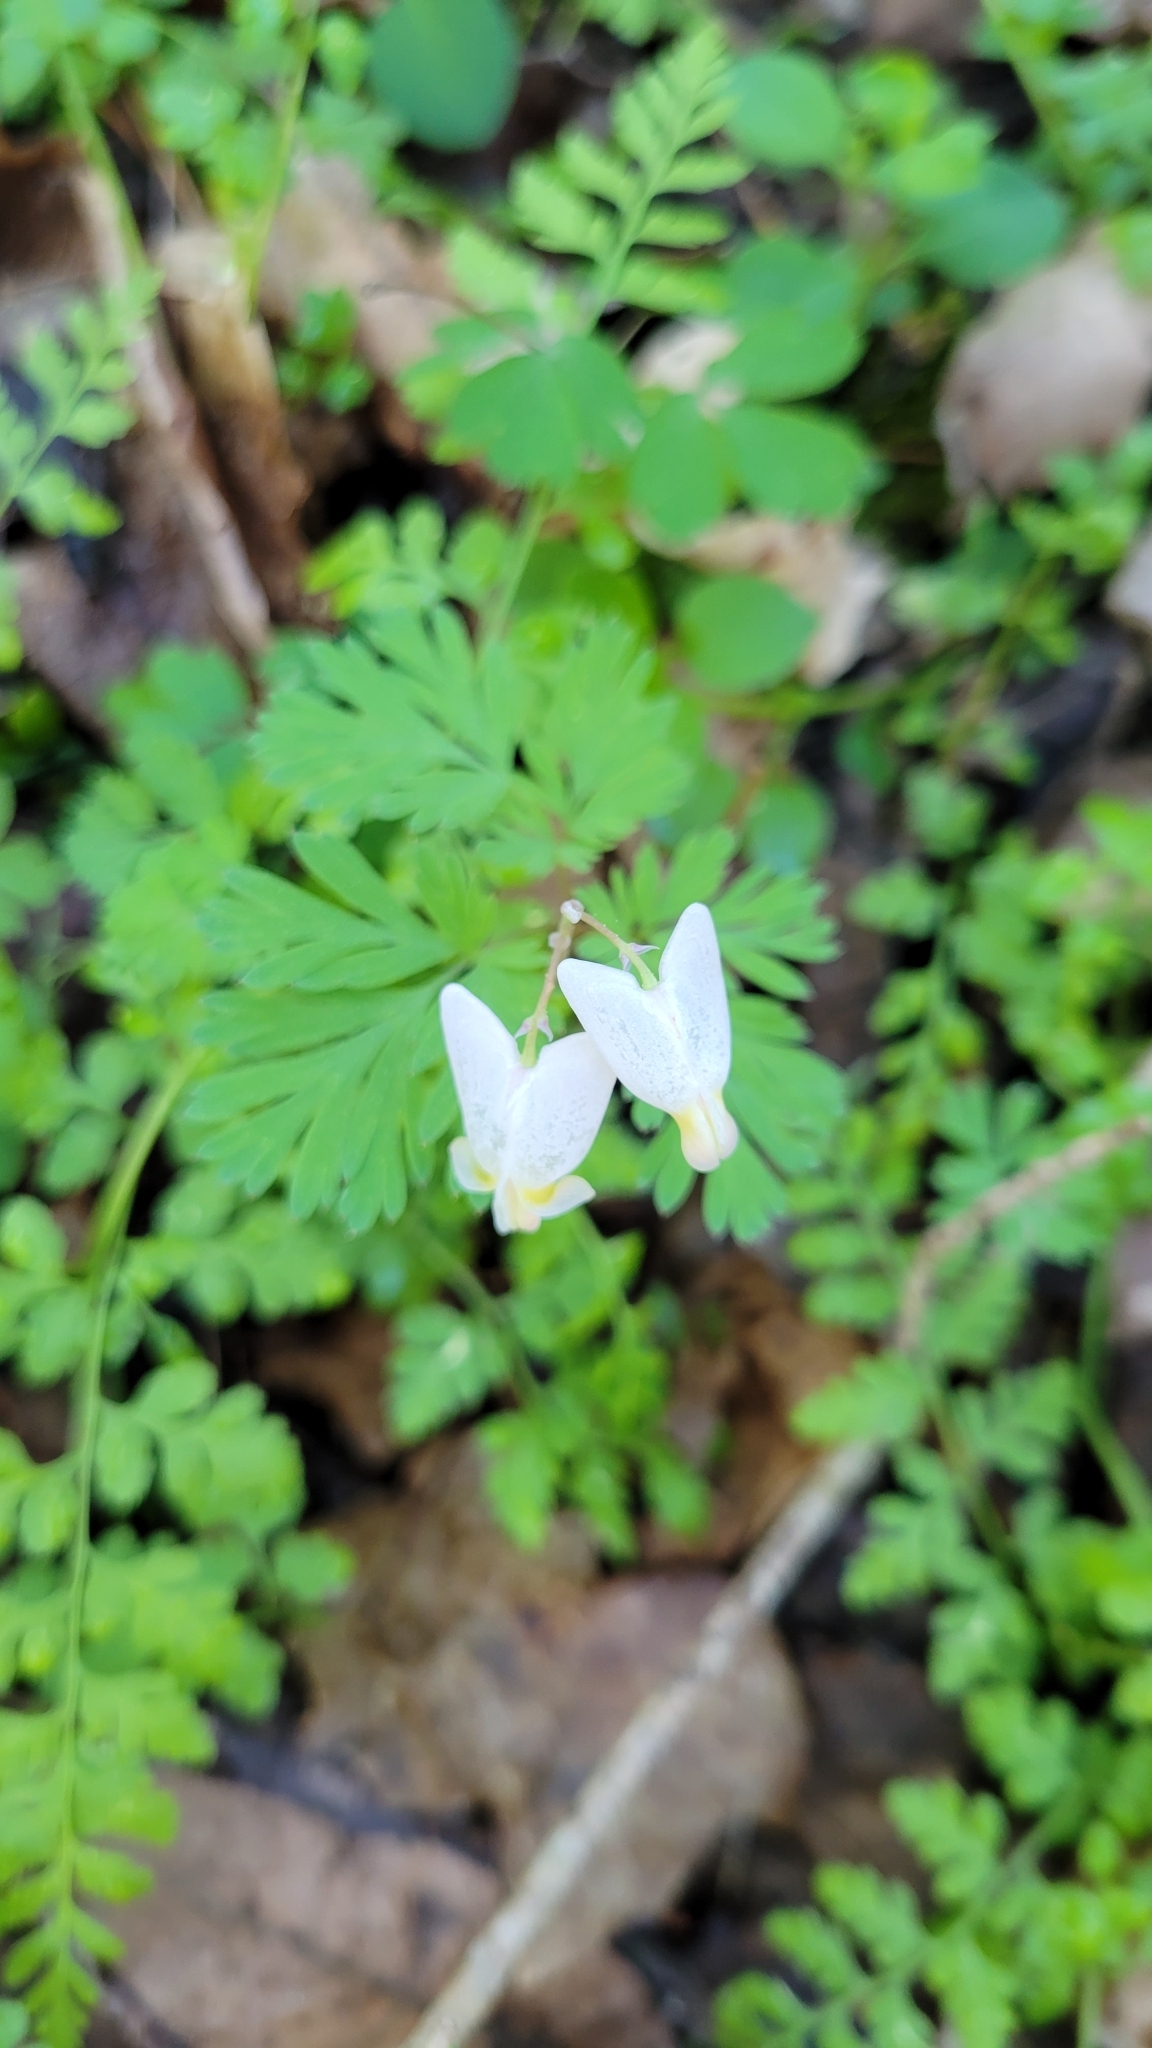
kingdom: Plantae
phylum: Tracheophyta
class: Magnoliopsida
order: Ranunculales
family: Papaveraceae
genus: Dicentra
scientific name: Dicentra cucullaria
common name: Dutchman's breeches
